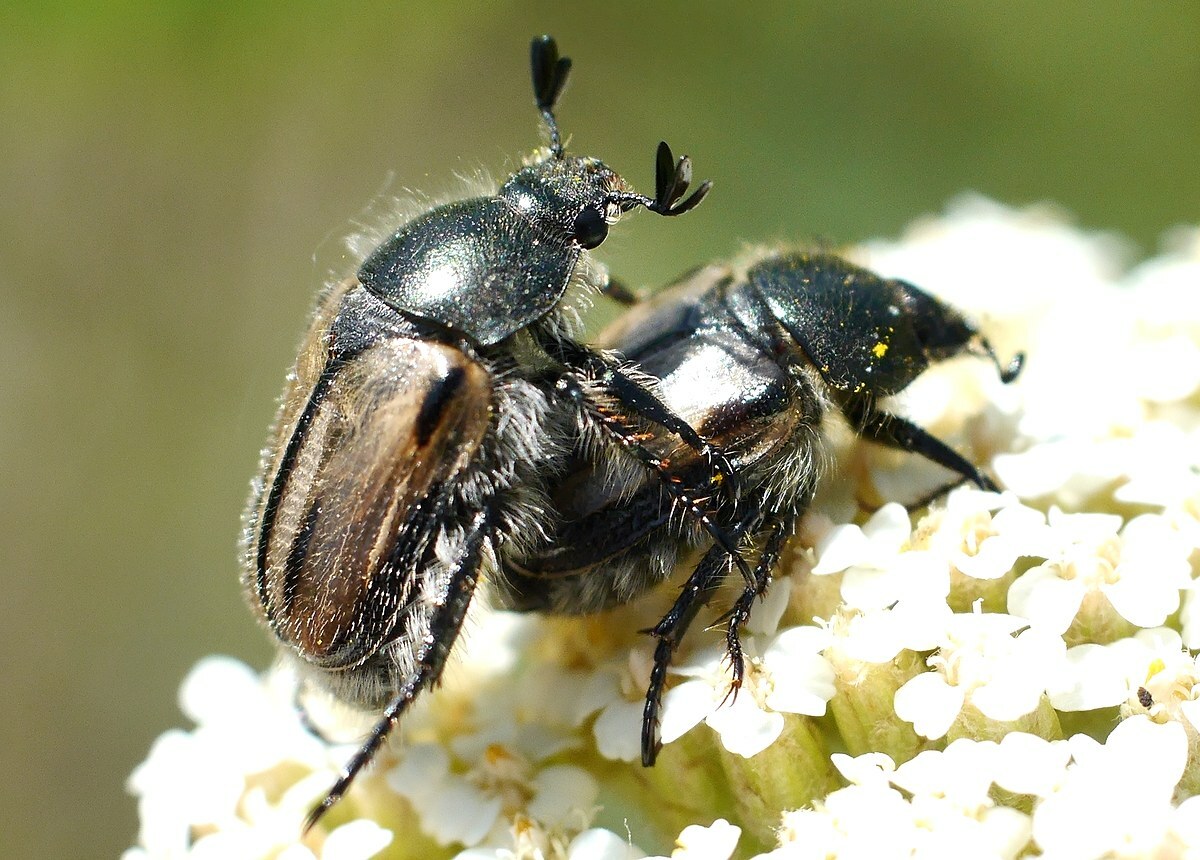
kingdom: Animalia
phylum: Arthropoda
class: Insecta
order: Coleoptera
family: Scarabaeidae
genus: Blitopertha
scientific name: Blitopertha lineolata
